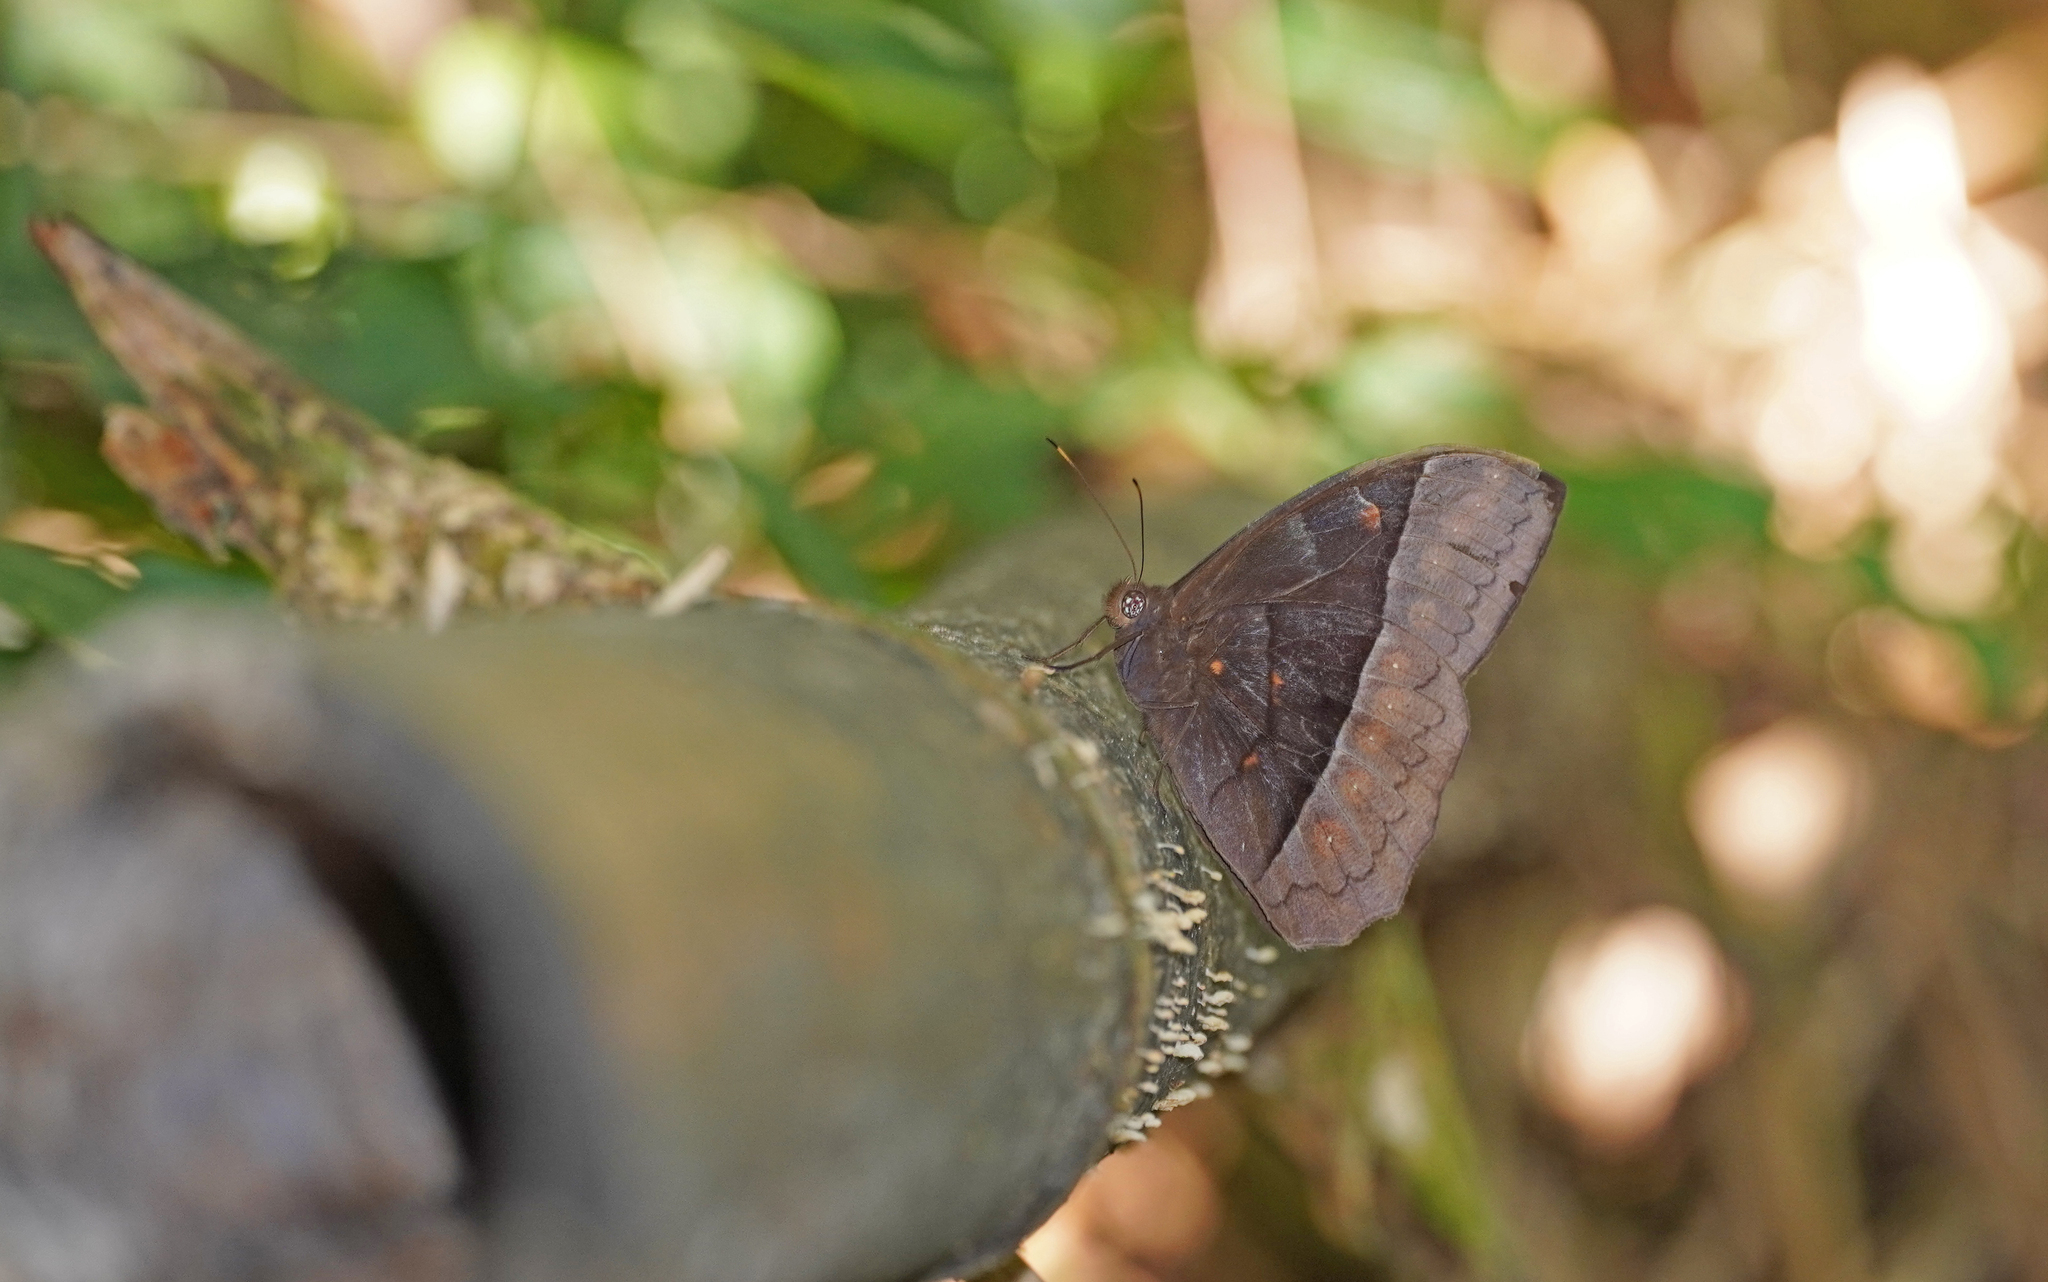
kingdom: Animalia
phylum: Arthropoda
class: Insecta
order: Lepidoptera
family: Nymphalidae
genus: Taygetis
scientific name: Taygetis oyapock
